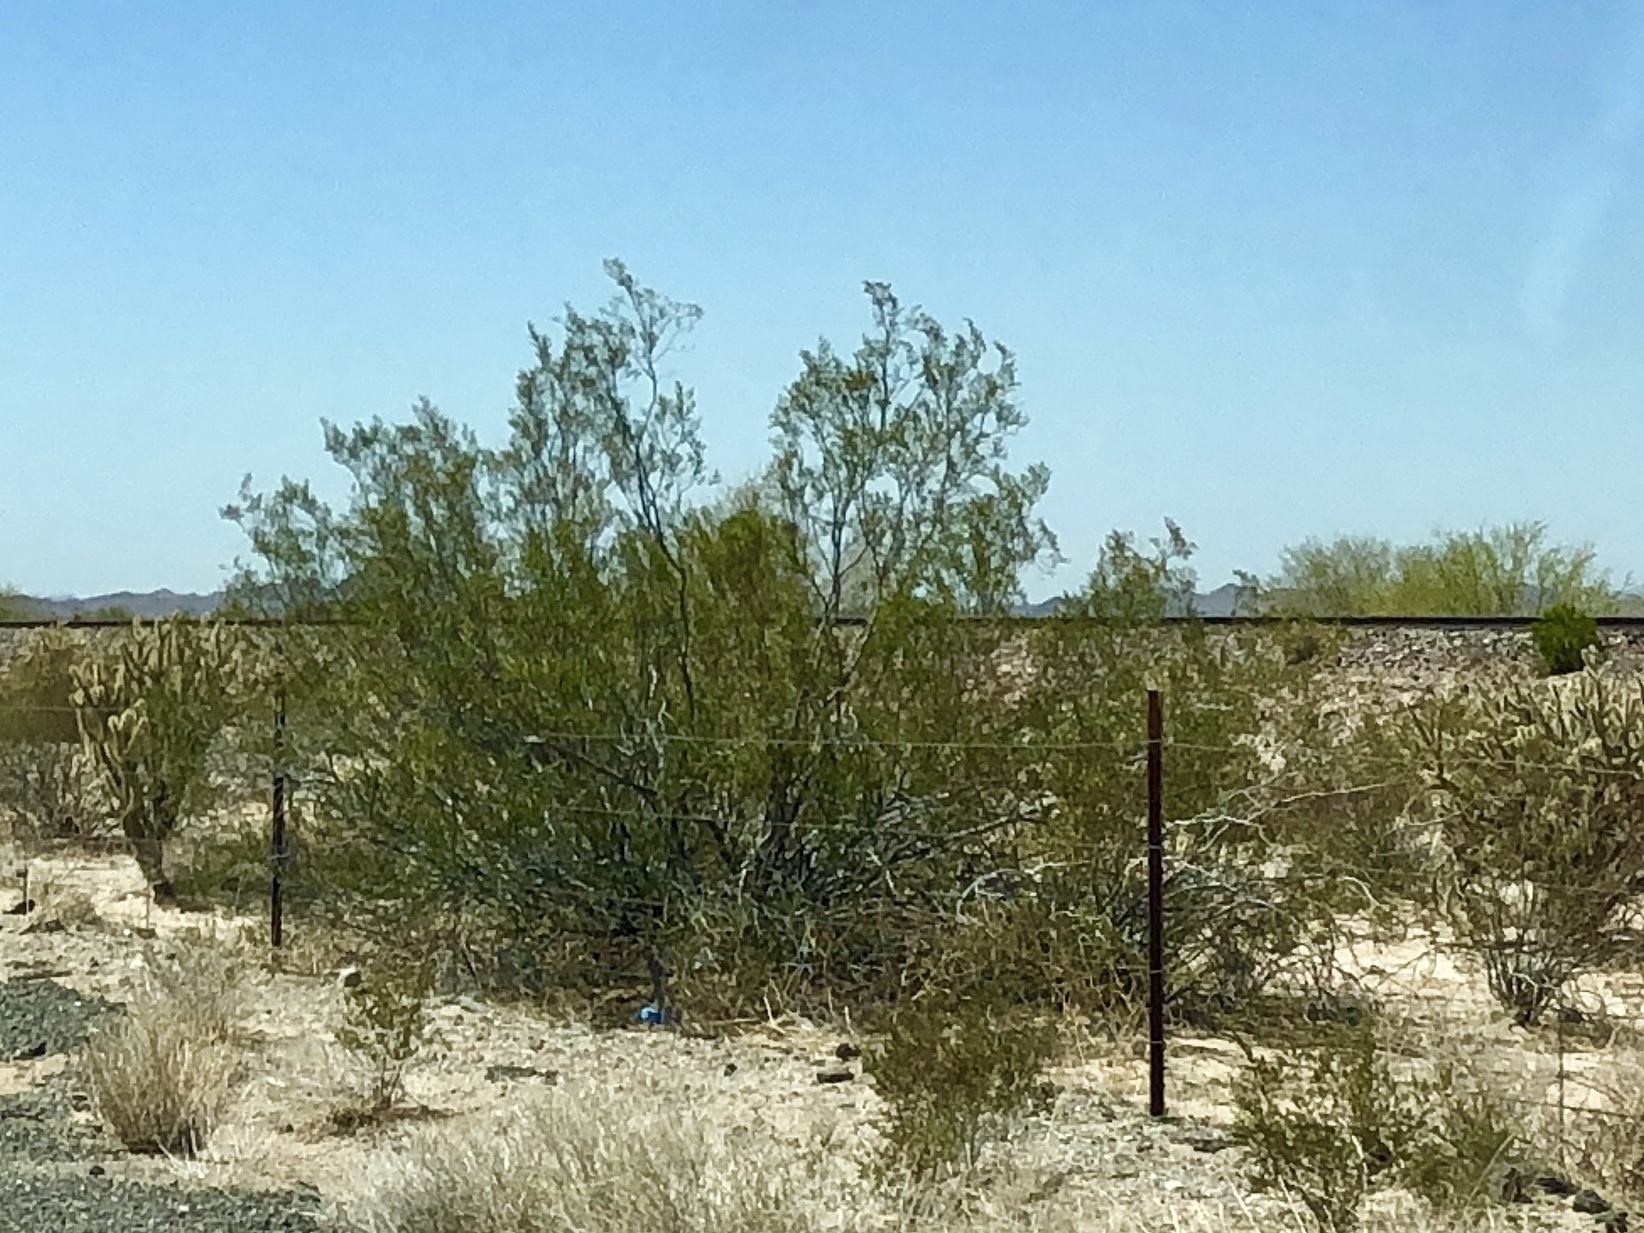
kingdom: Plantae
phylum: Tracheophyta
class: Magnoliopsida
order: Zygophyllales
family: Zygophyllaceae
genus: Larrea
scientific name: Larrea tridentata
